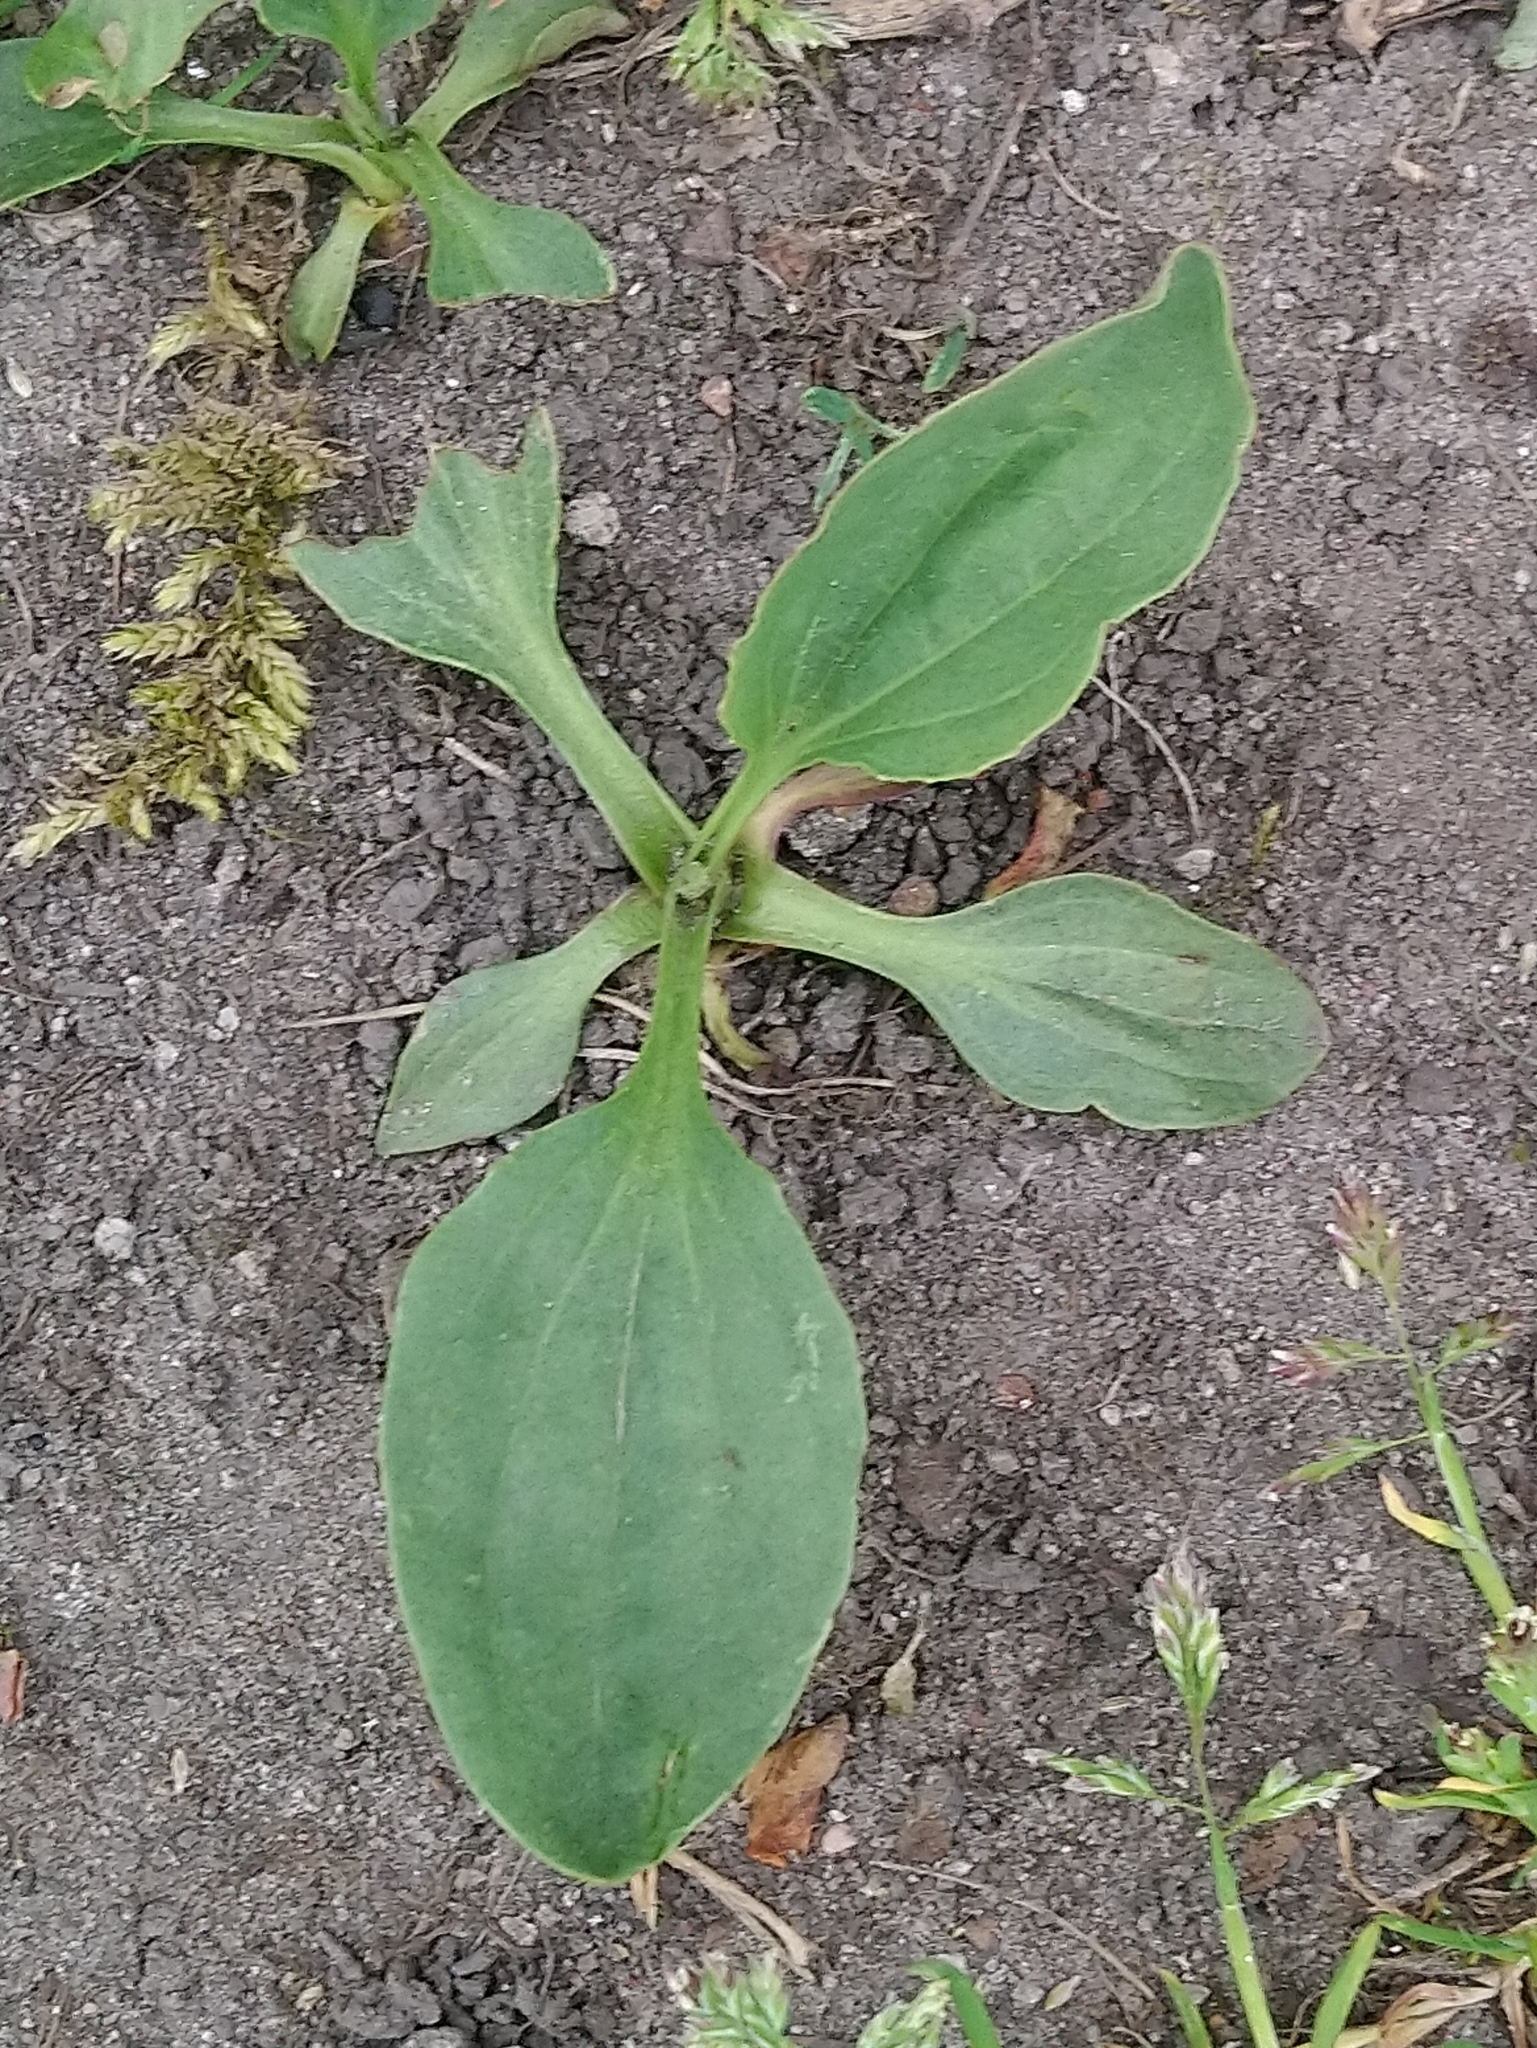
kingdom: Plantae
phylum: Tracheophyta
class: Magnoliopsida
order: Lamiales
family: Plantaginaceae
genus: Plantago
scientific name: Plantago major
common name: Common plantain
